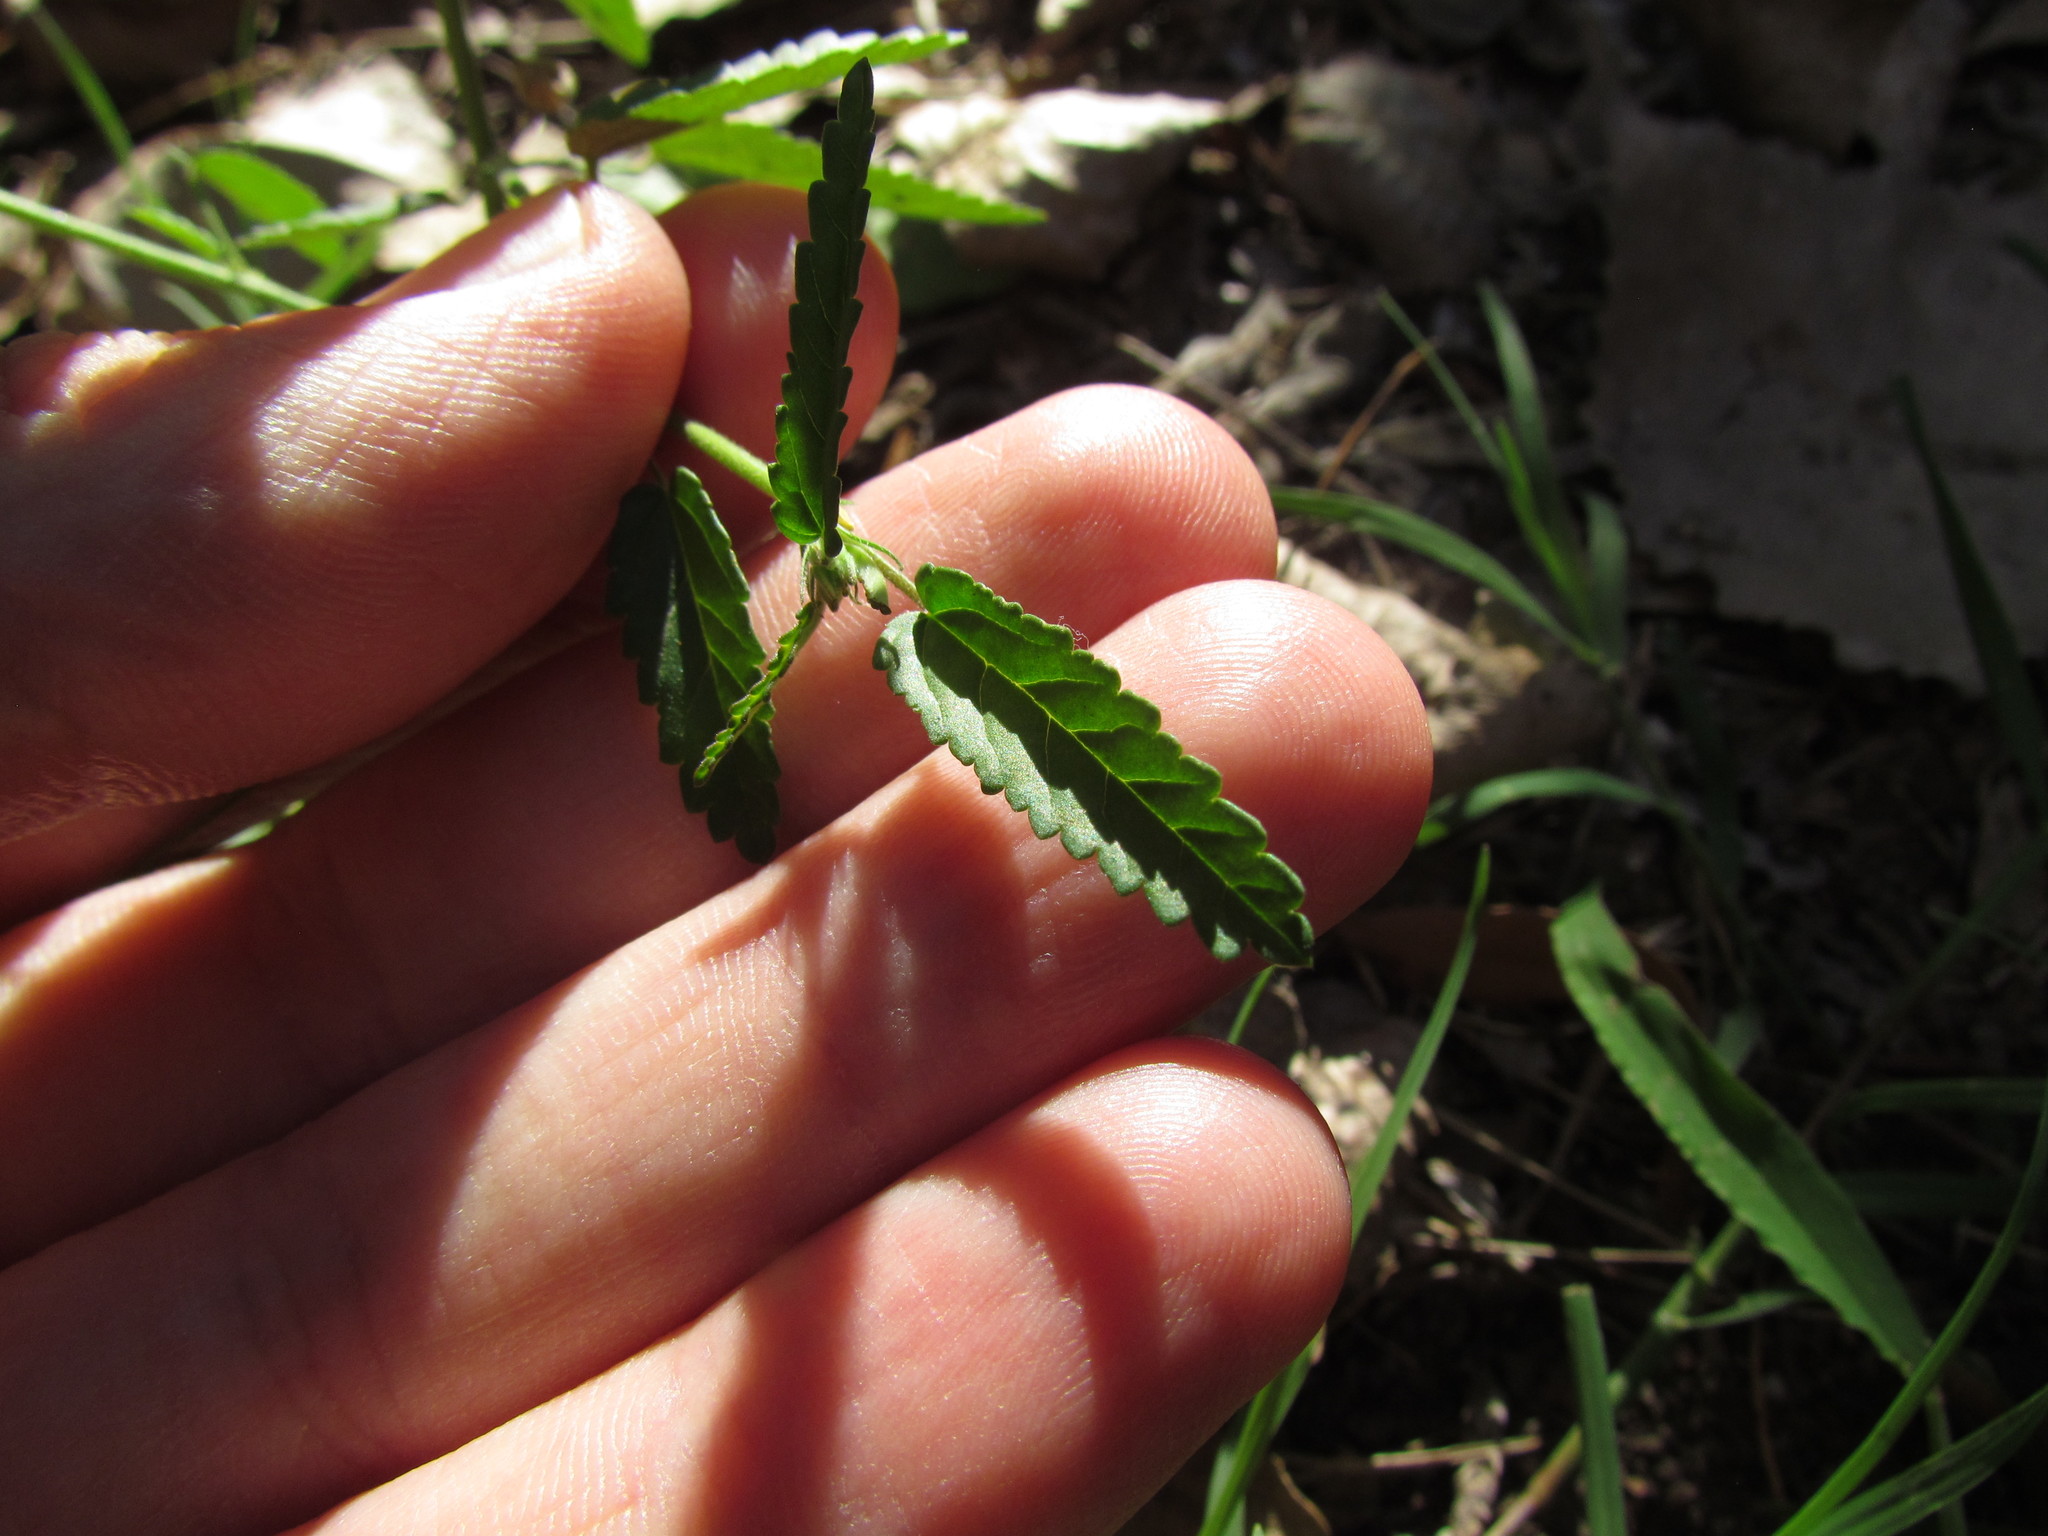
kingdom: Plantae
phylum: Tracheophyta
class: Magnoliopsida
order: Malvales
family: Malvaceae
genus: Sida
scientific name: Sida spinosa
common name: Prickly fanpetals
